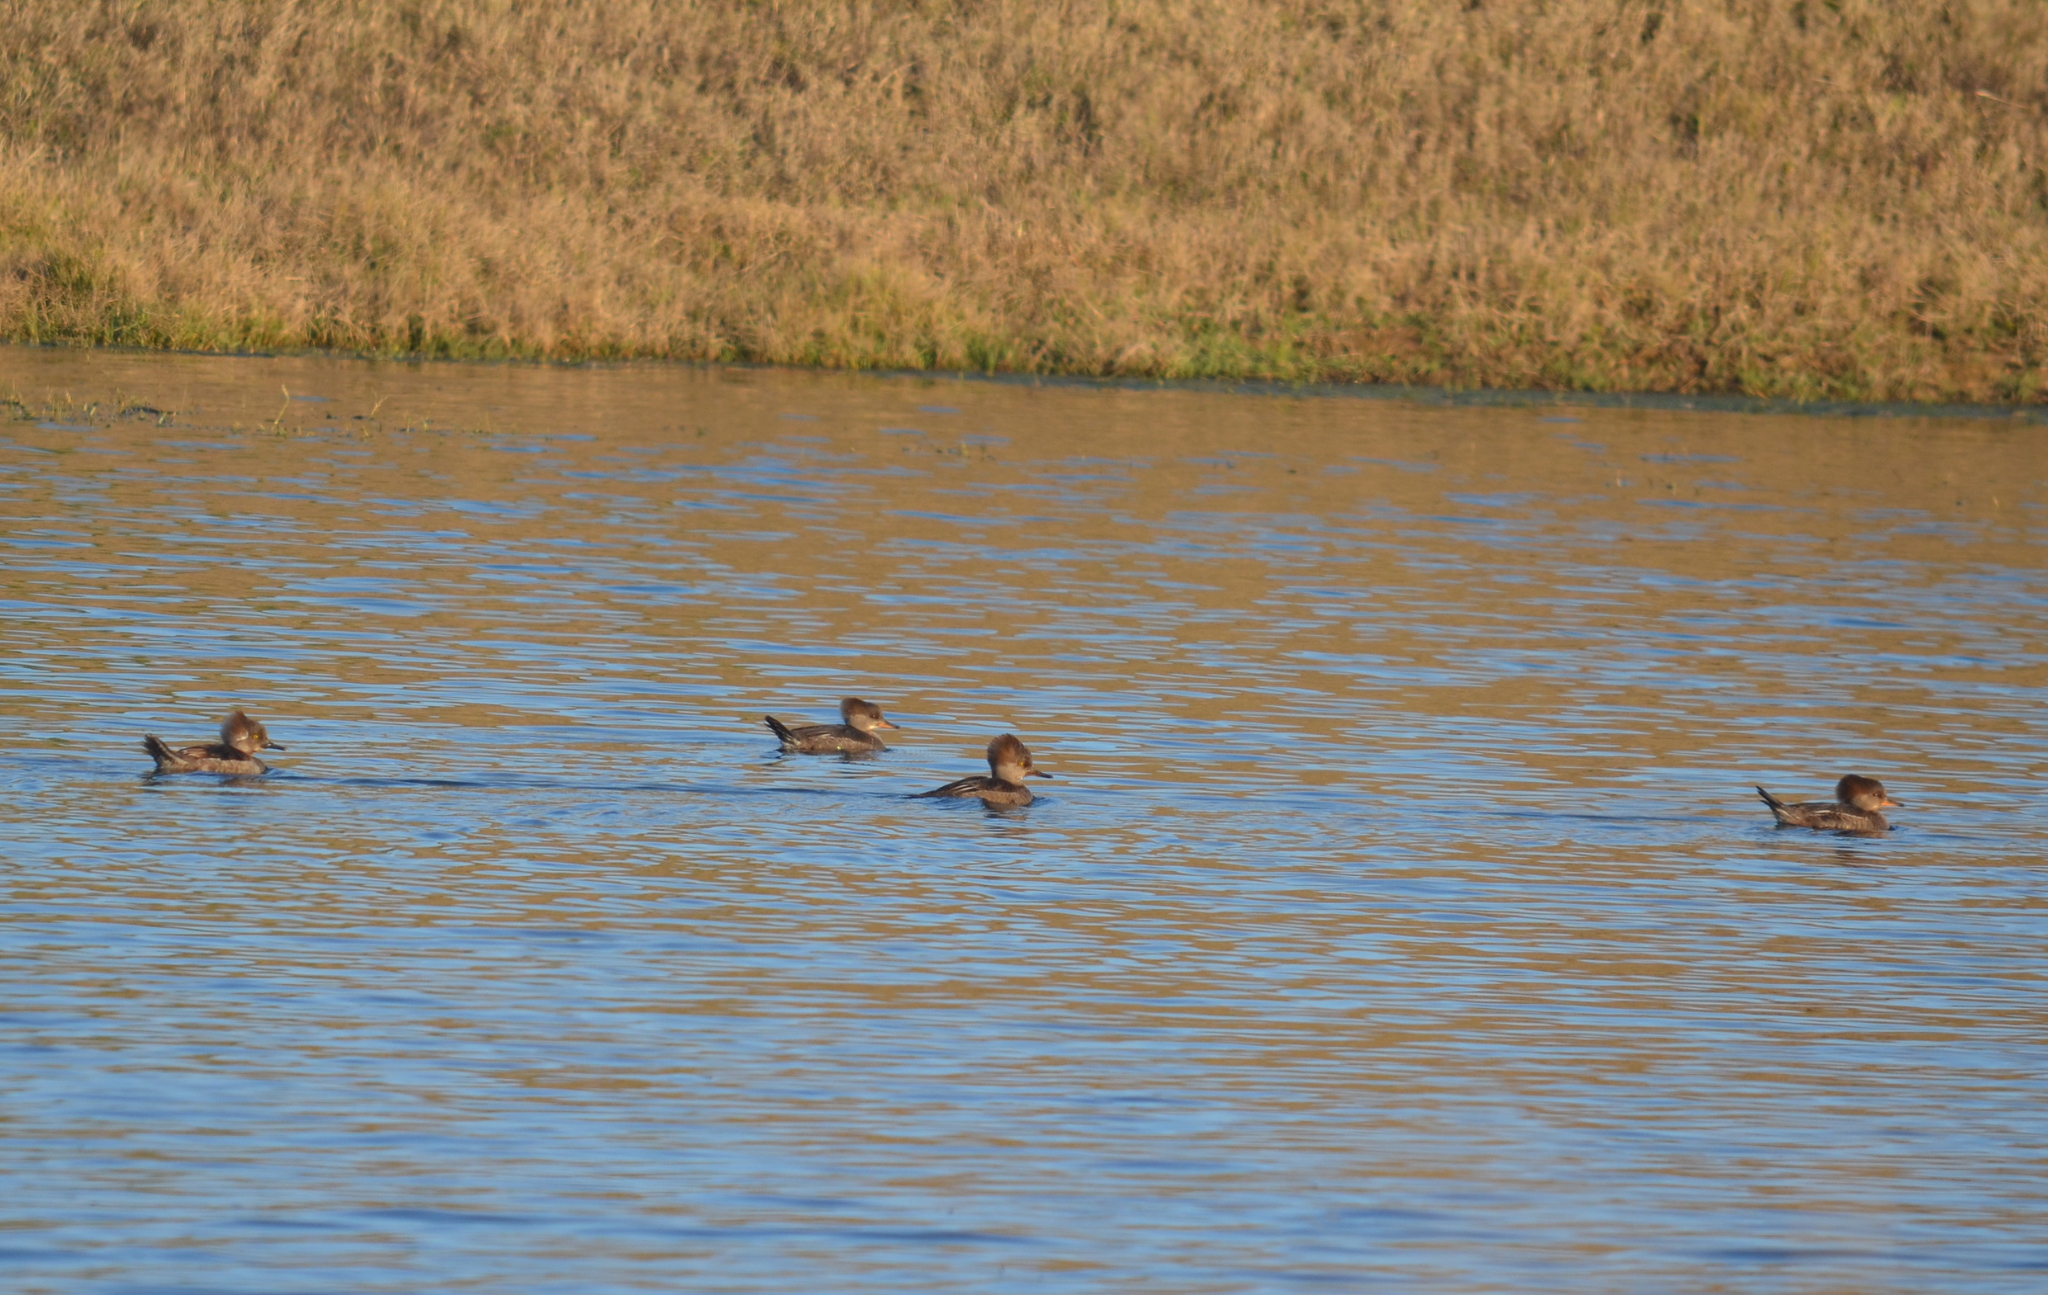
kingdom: Animalia
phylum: Chordata
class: Aves
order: Anseriformes
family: Anatidae
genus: Lophodytes
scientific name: Lophodytes cucullatus
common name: Hooded merganser
